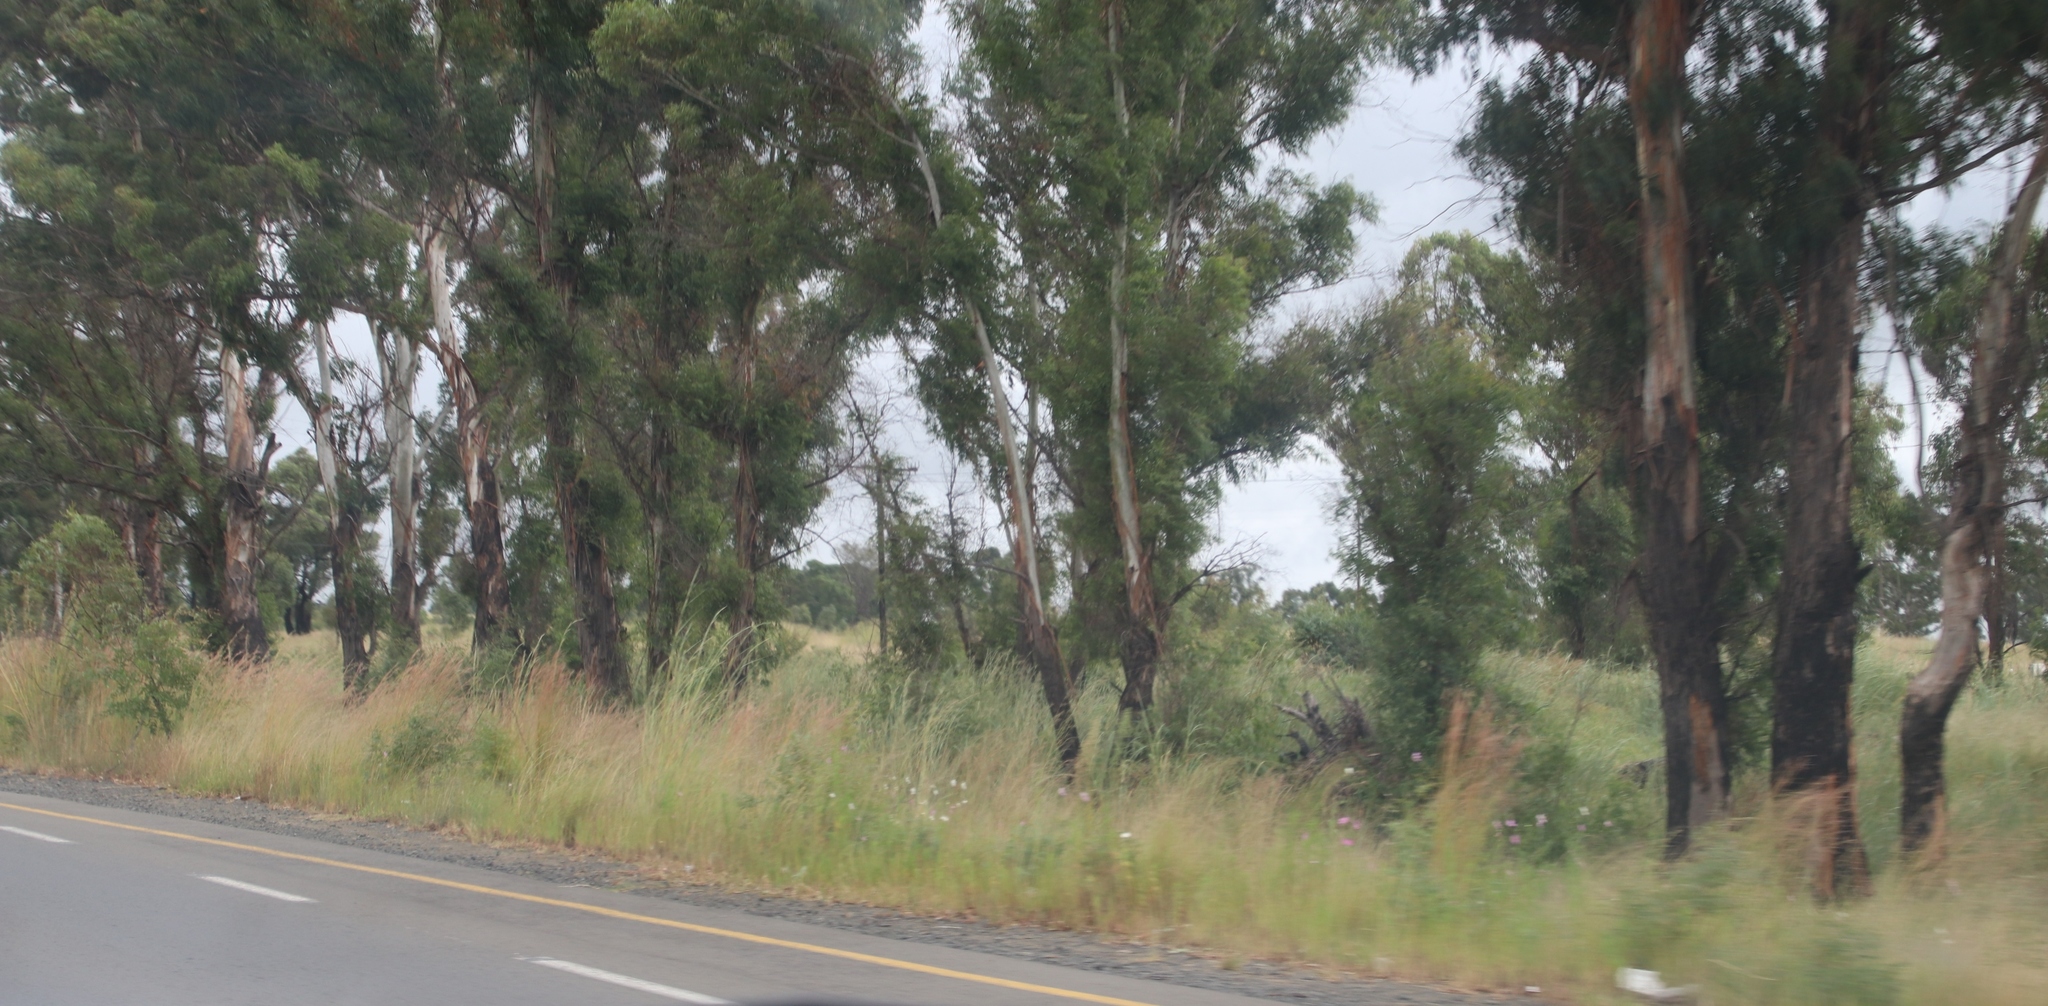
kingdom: Plantae
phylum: Tracheophyta
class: Magnoliopsida
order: Asterales
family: Asteraceae
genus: Cosmos
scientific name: Cosmos bipinnatus
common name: Garden cosmos
